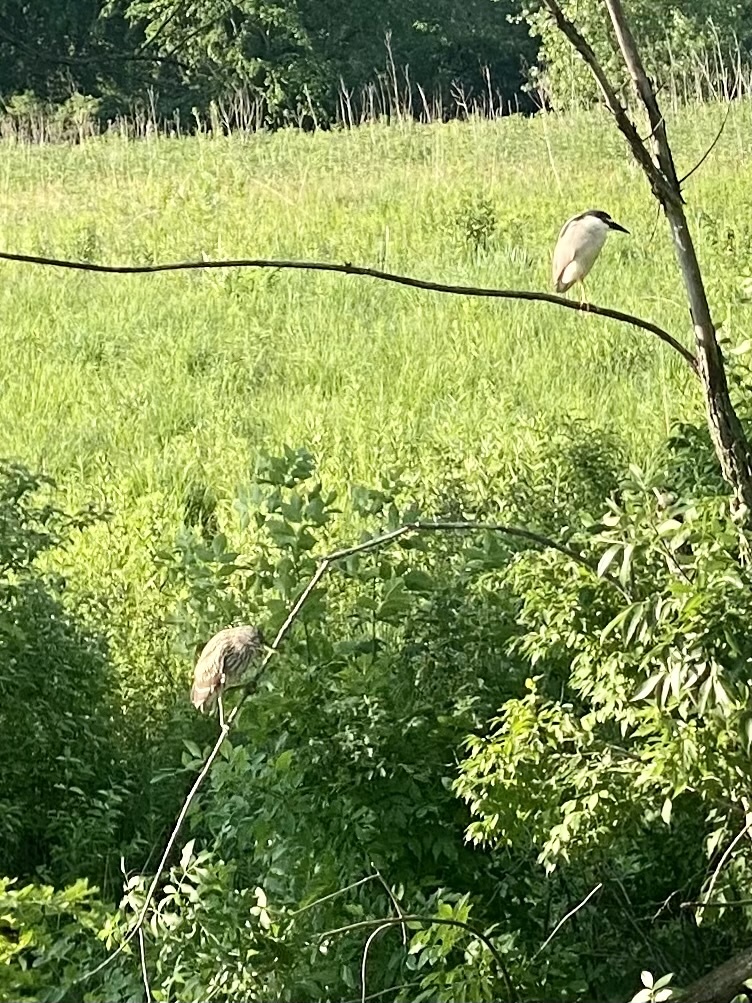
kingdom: Animalia
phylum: Chordata
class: Aves
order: Pelecaniformes
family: Ardeidae
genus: Nycticorax
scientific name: Nycticorax nycticorax
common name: Black-crowned night heron
